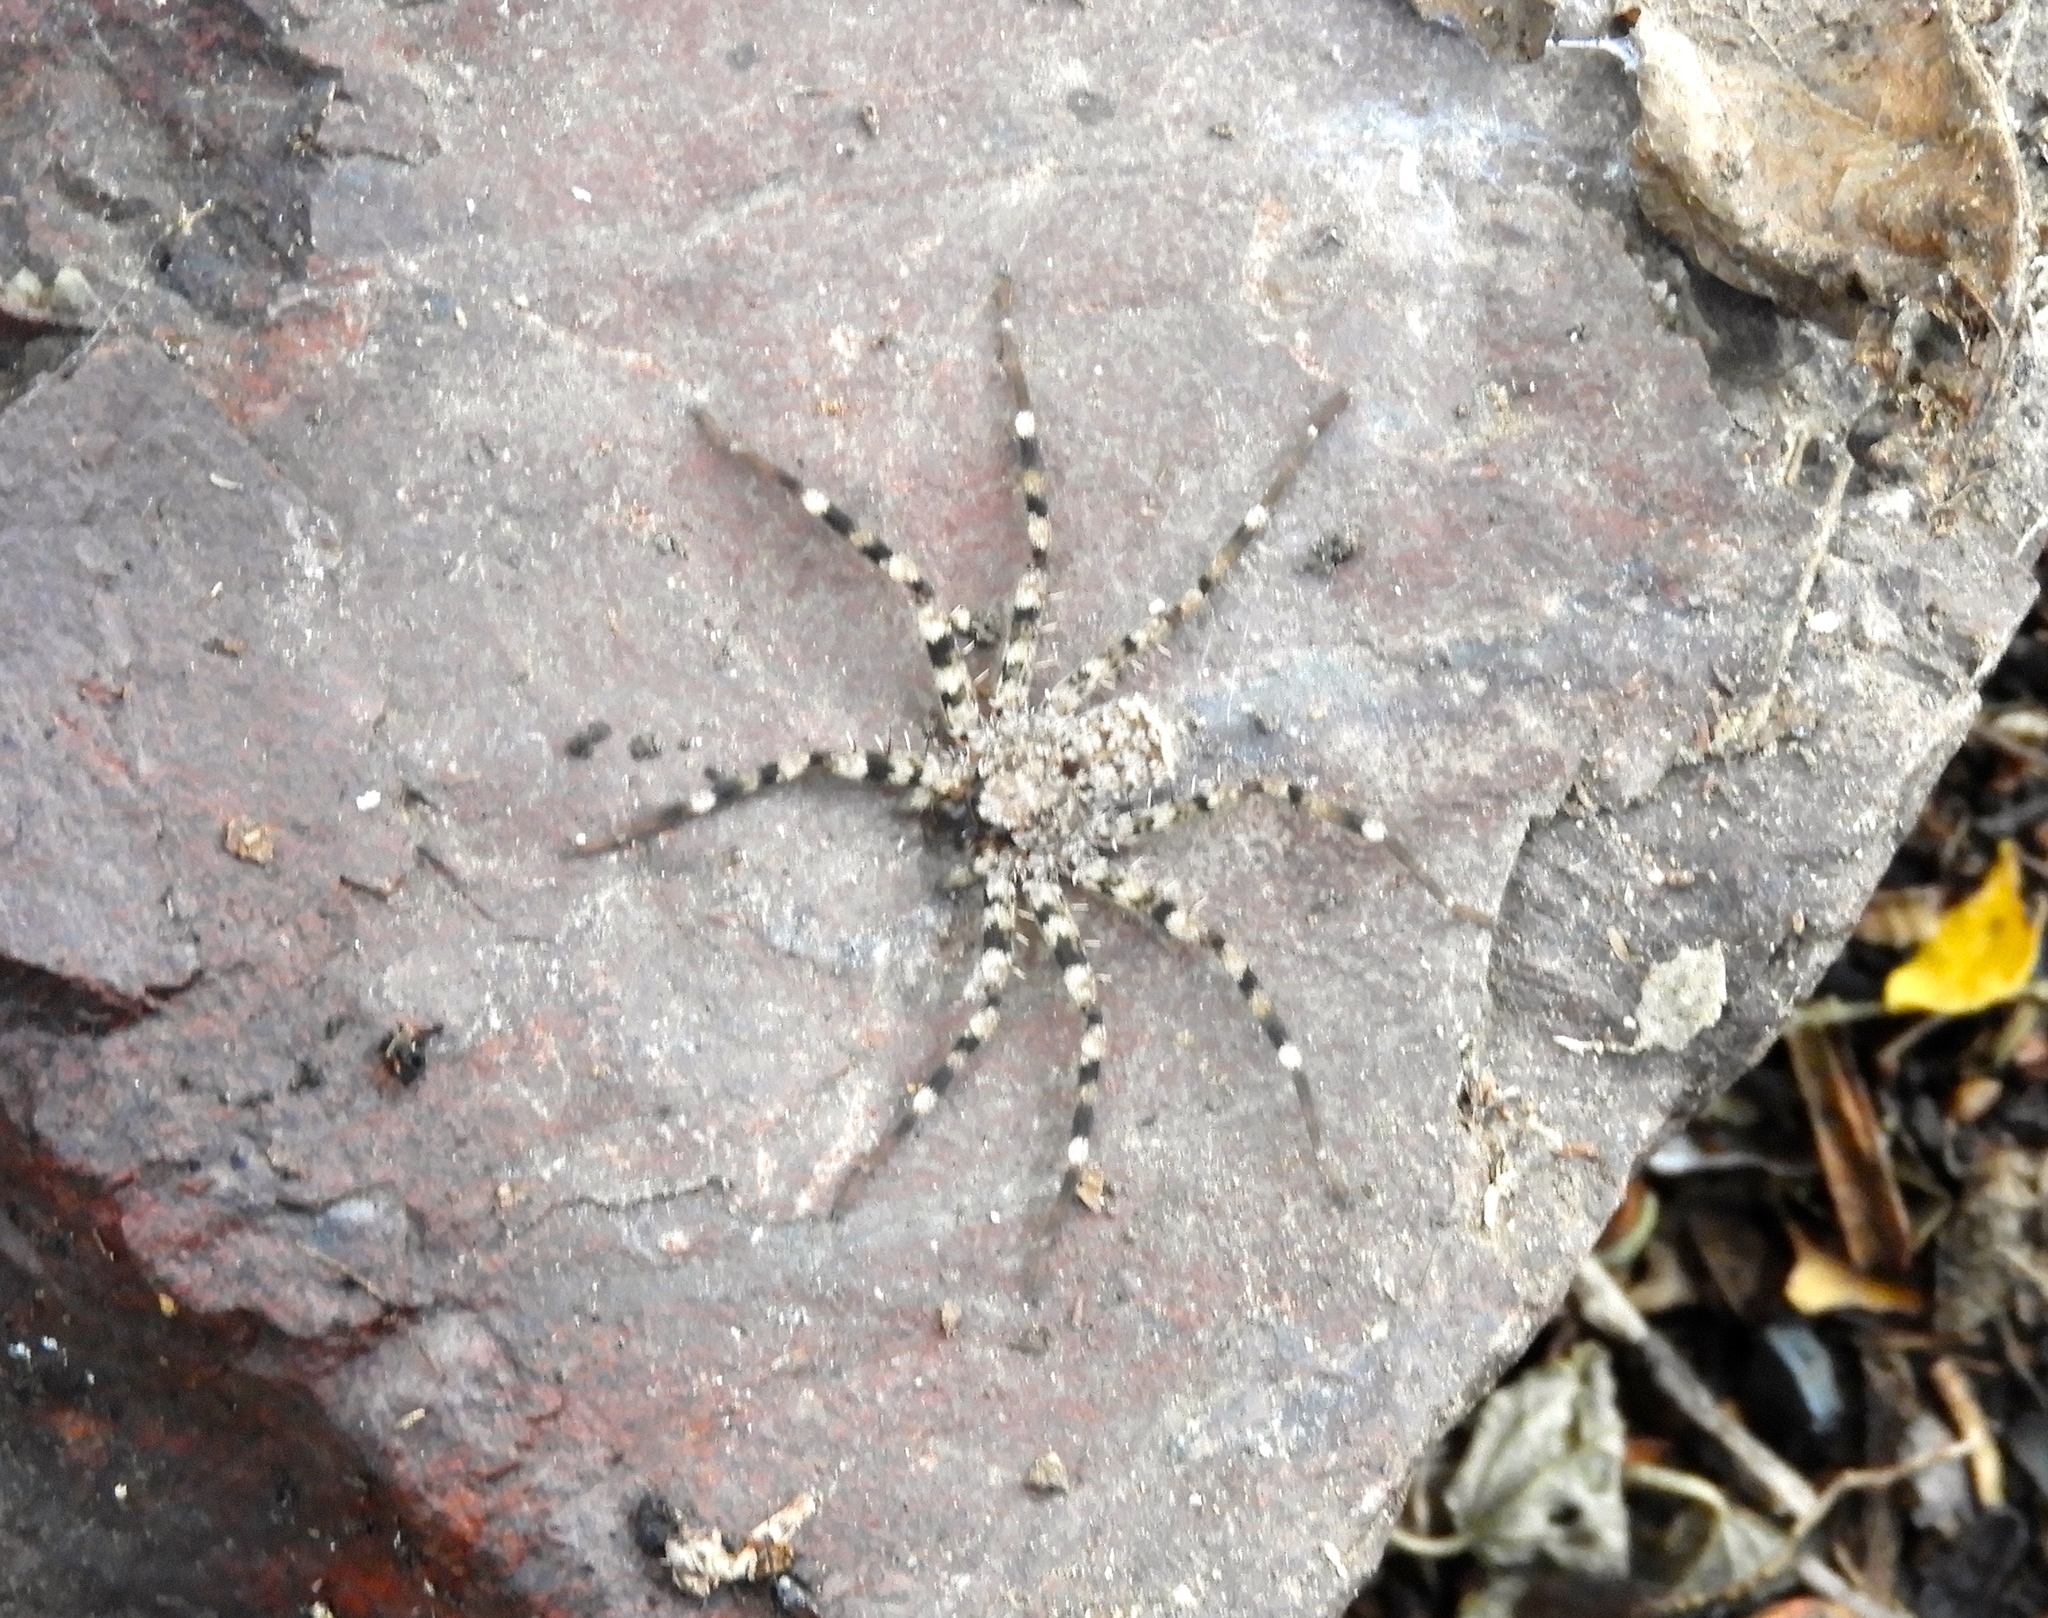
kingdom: Animalia
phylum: Arthropoda
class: Arachnida
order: Araneae
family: Selenopidae
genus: Selenops
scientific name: Selenops
